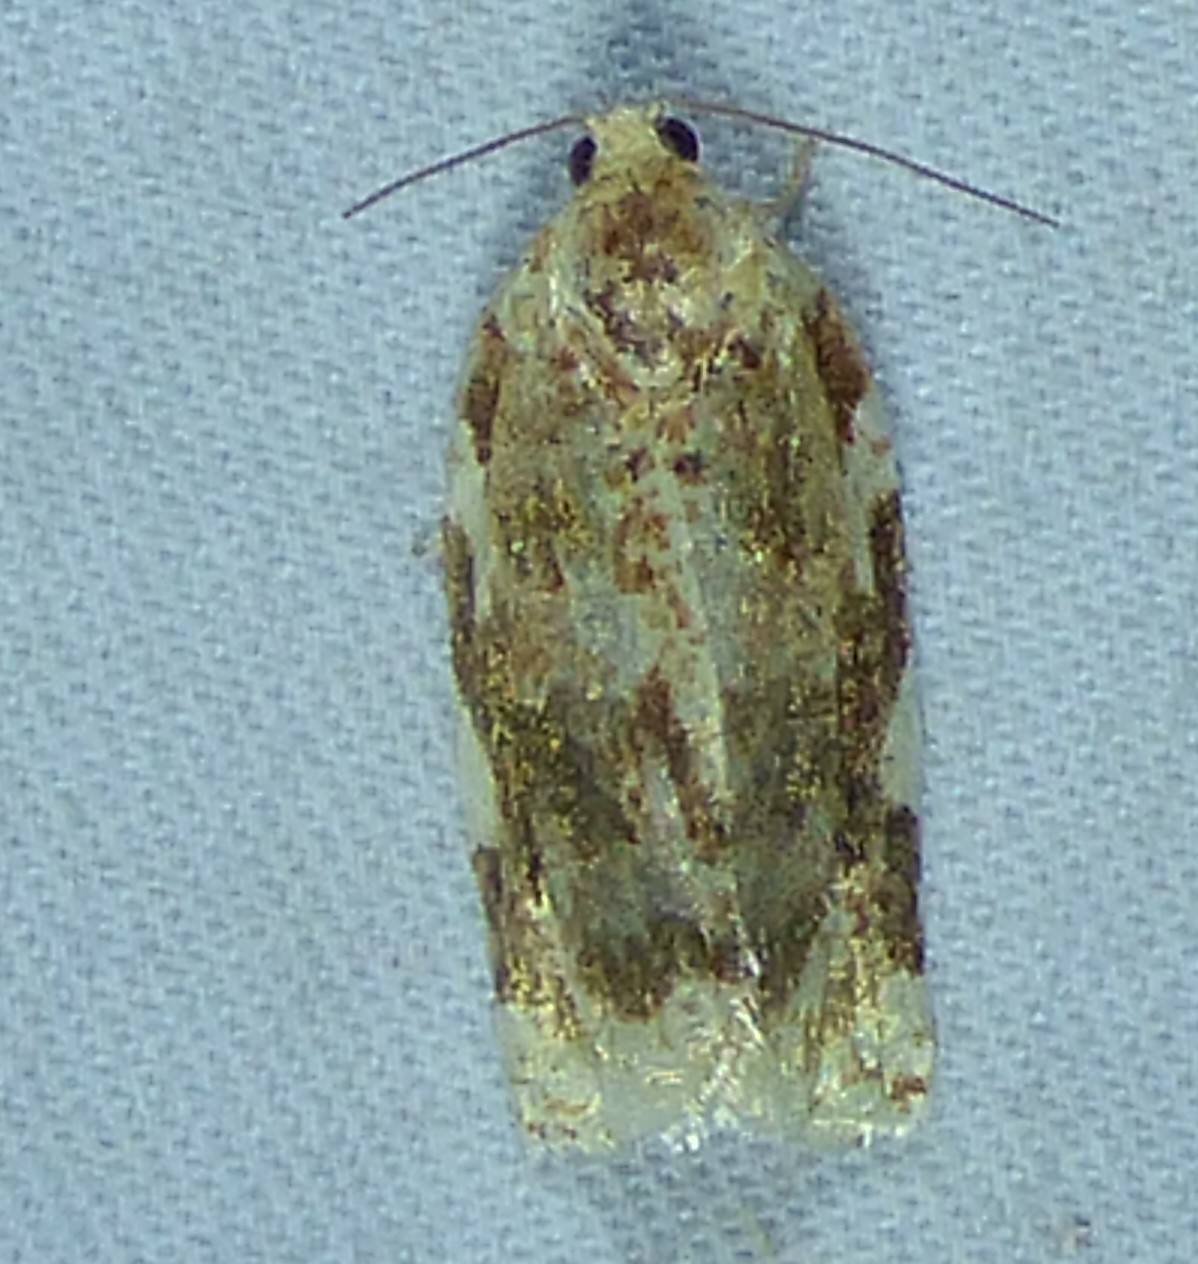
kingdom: Animalia
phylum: Arthropoda
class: Insecta
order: Lepidoptera
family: Tortricidae
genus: Archips
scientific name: Archips argyrospila
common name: Fruit-tree leafroller moth
